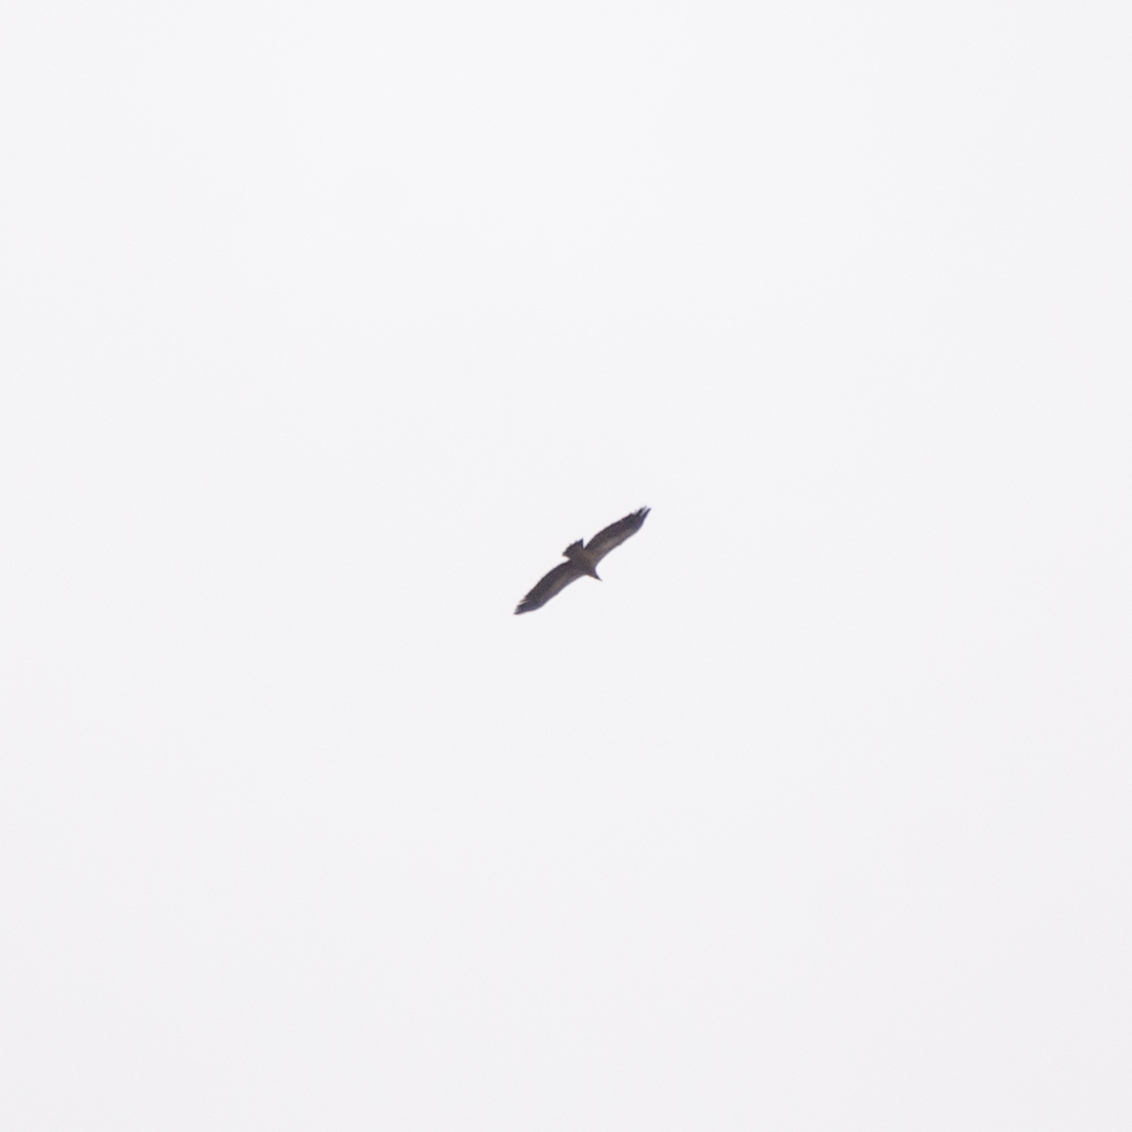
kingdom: Animalia
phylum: Chordata
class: Aves
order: Accipitriformes
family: Accipitridae
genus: Gyps
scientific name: Gyps fulvus
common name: Griffon vulture
